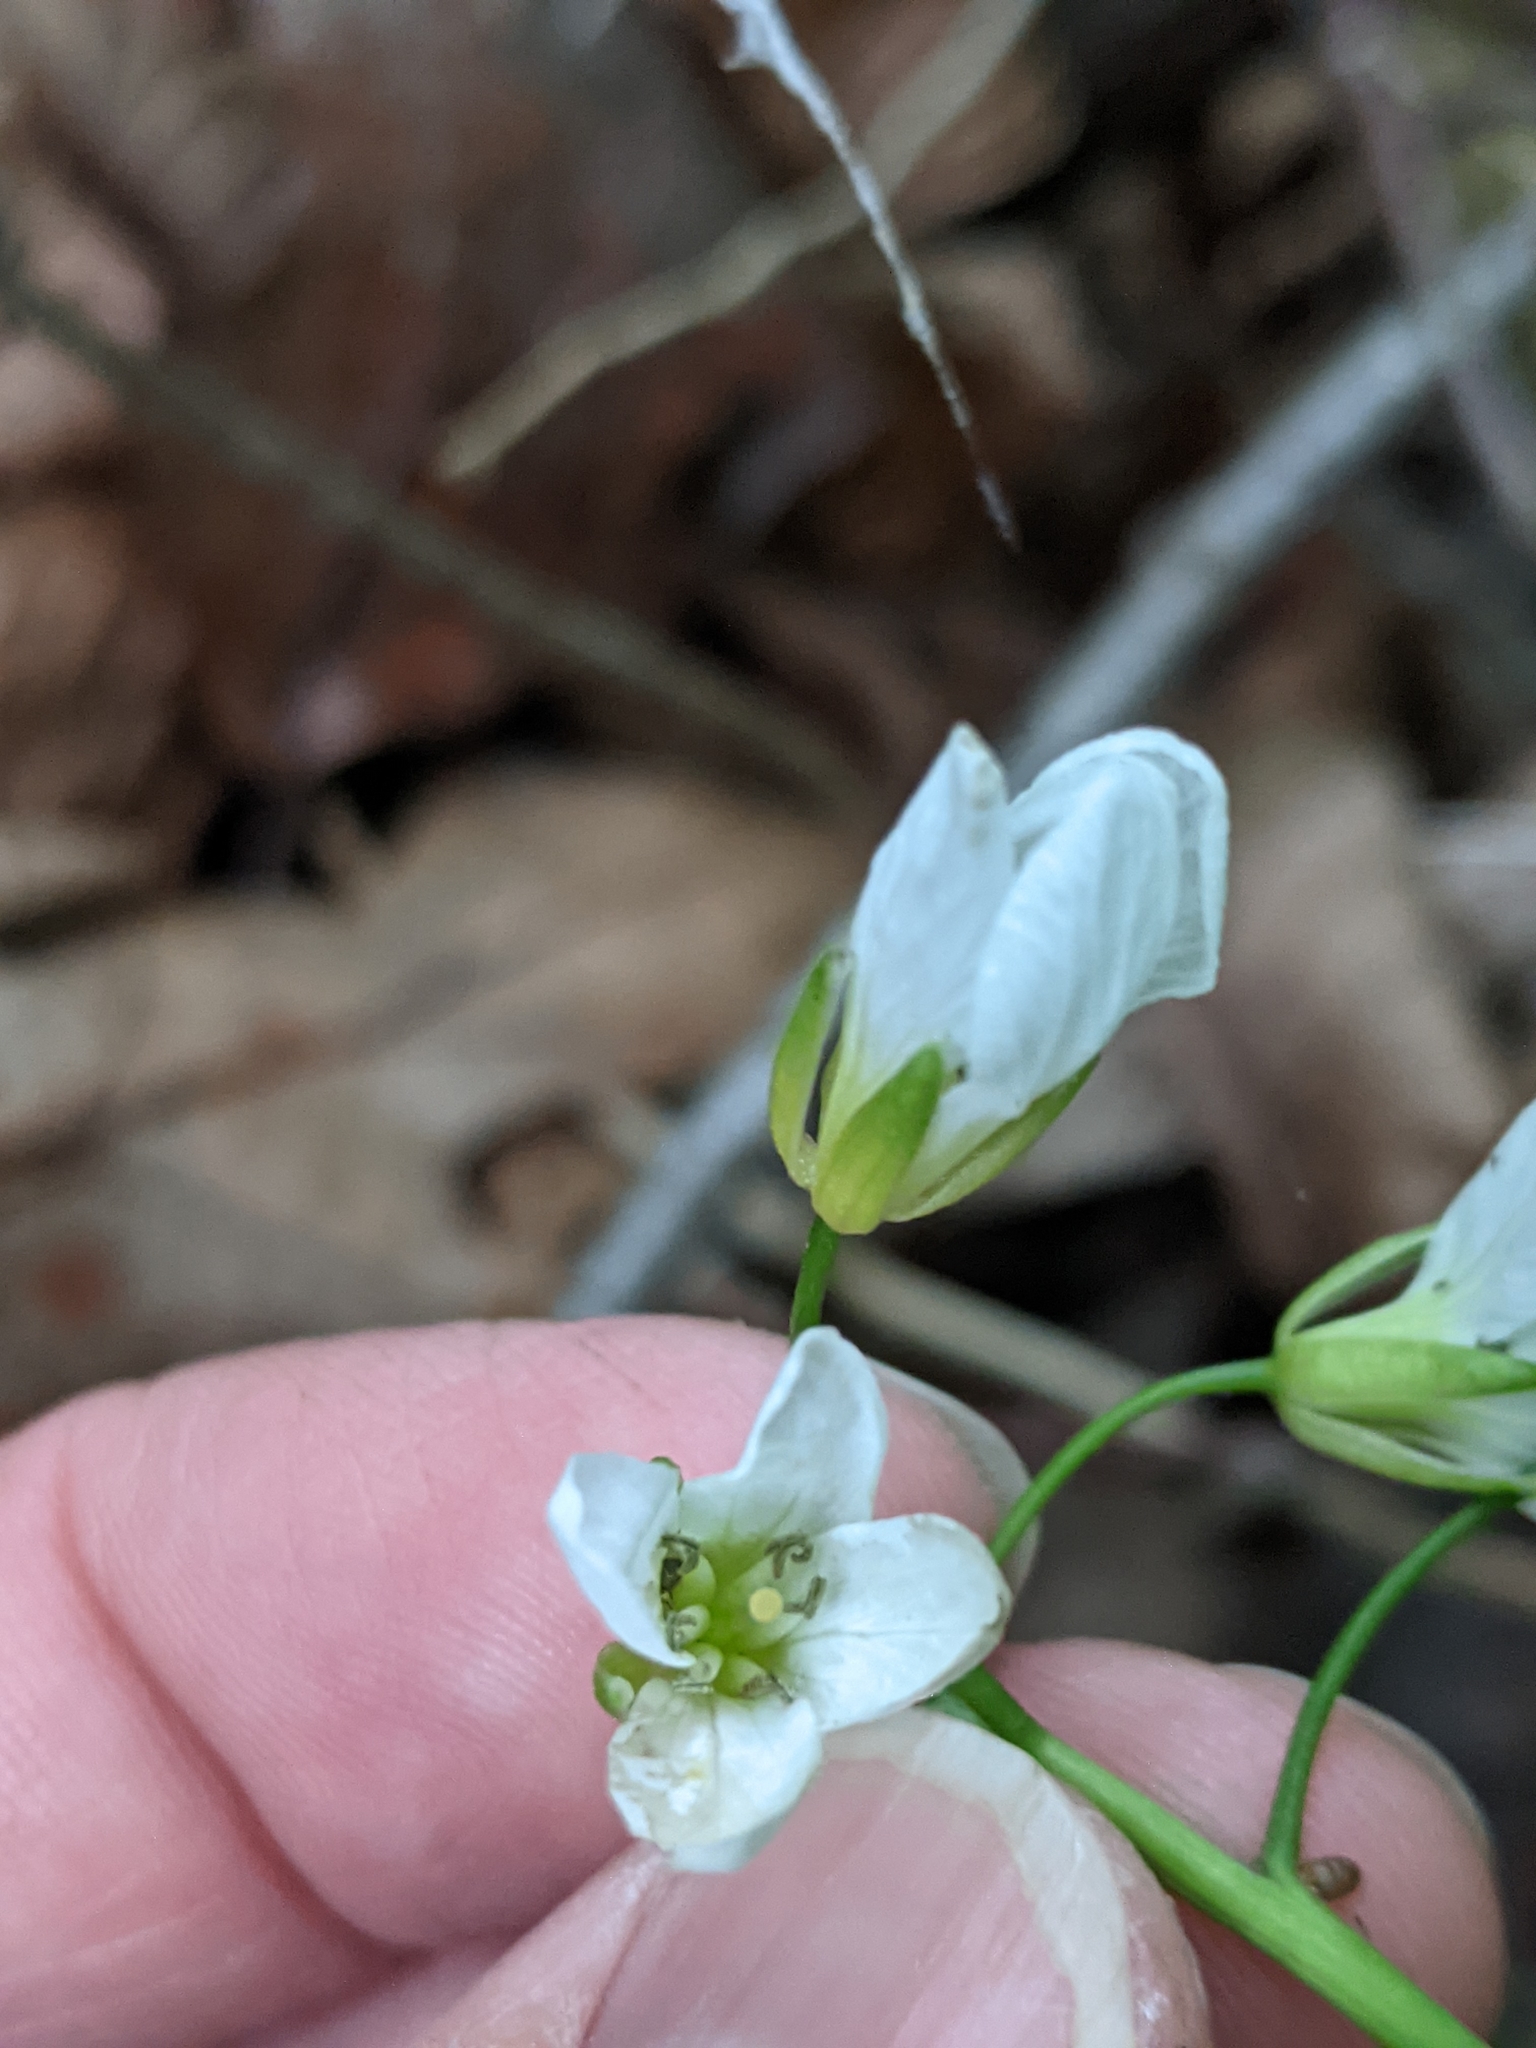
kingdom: Plantae
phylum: Tracheophyta
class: Magnoliopsida
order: Brassicales
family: Brassicaceae
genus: Cardamine
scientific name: Cardamine diphylla
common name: Broad-leaved toothwort
